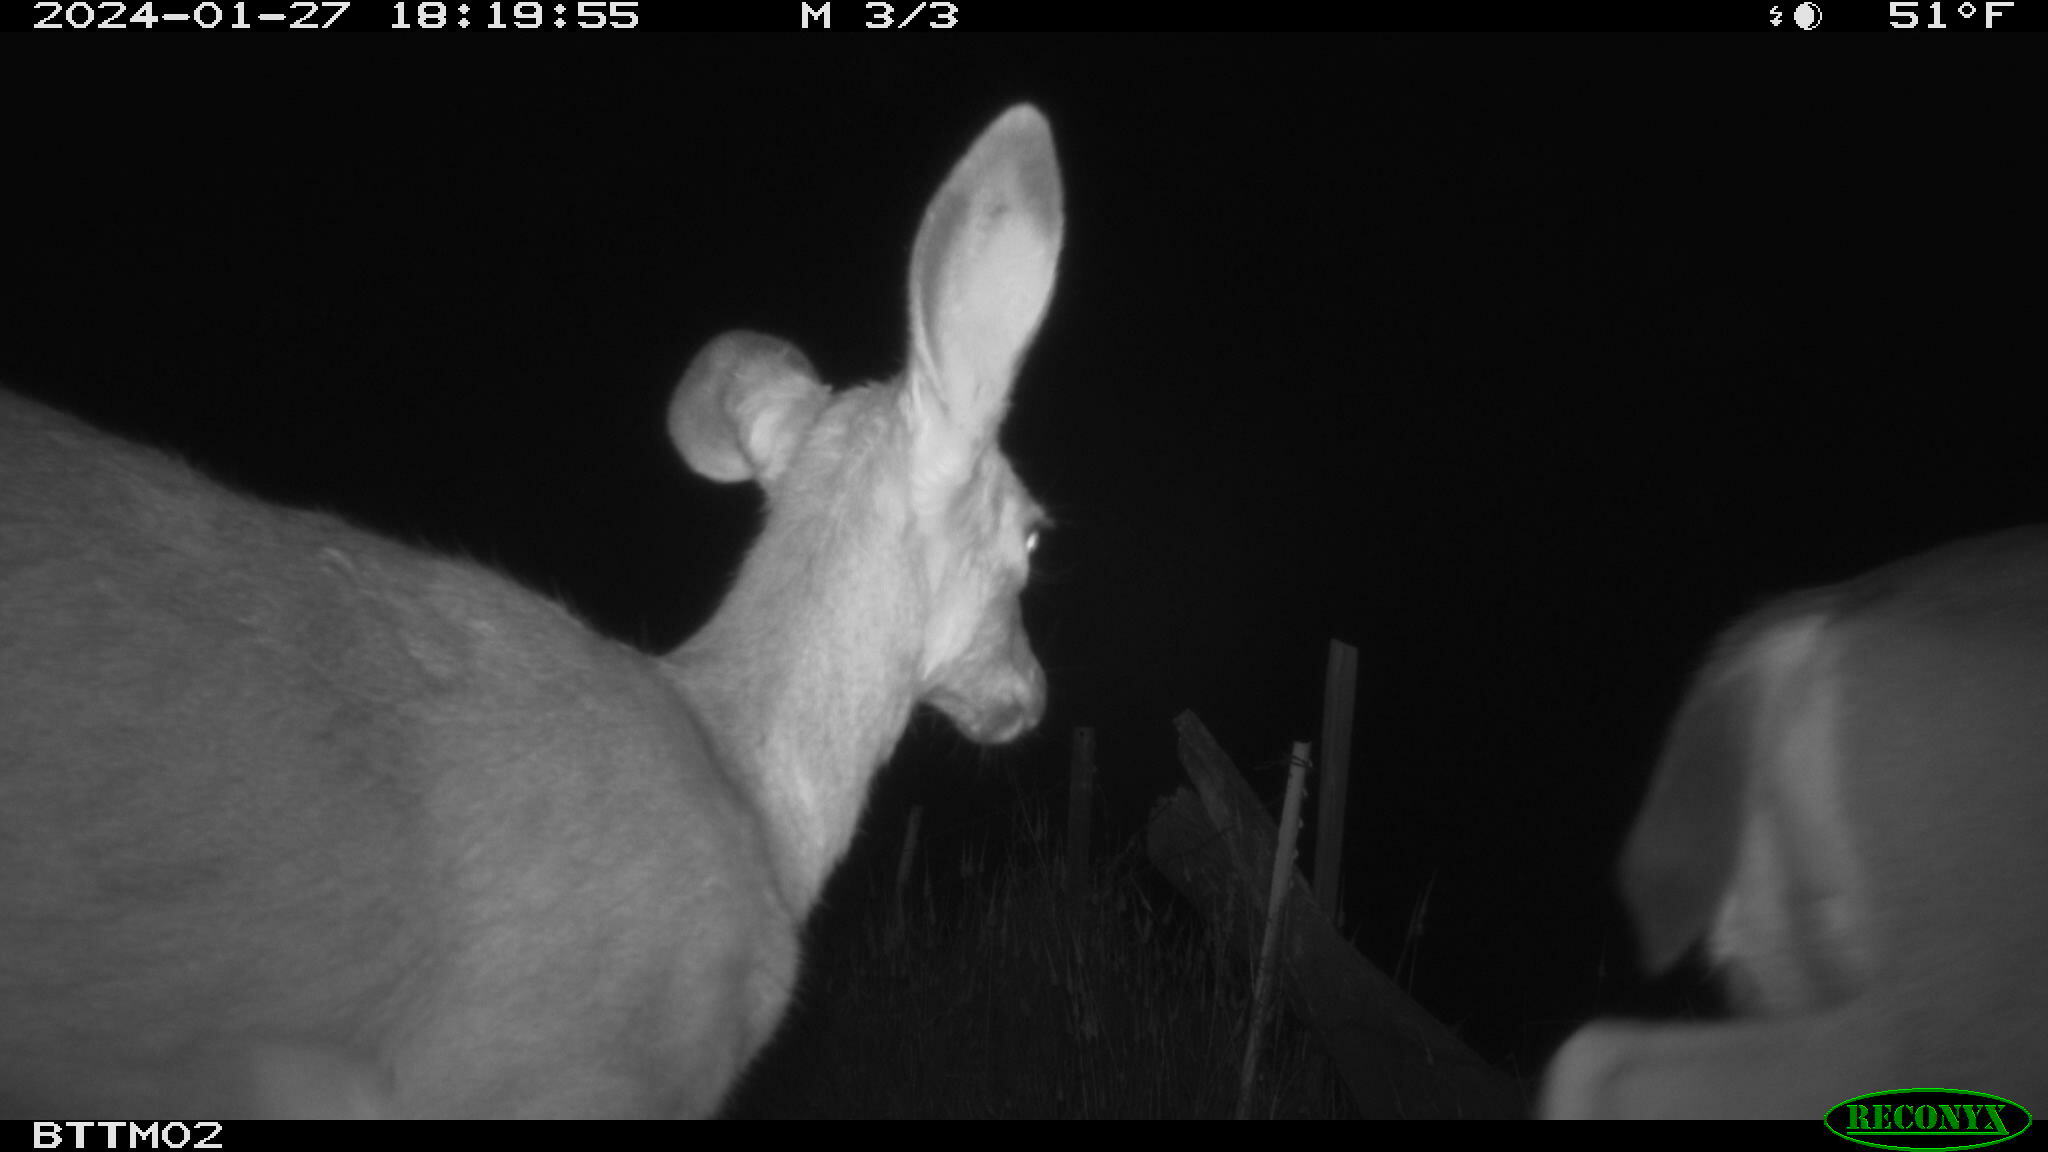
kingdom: Animalia
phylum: Chordata
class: Mammalia
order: Artiodactyla
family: Cervidae
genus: Odocoileus
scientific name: Odocoileus hemionus
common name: Mule deer
